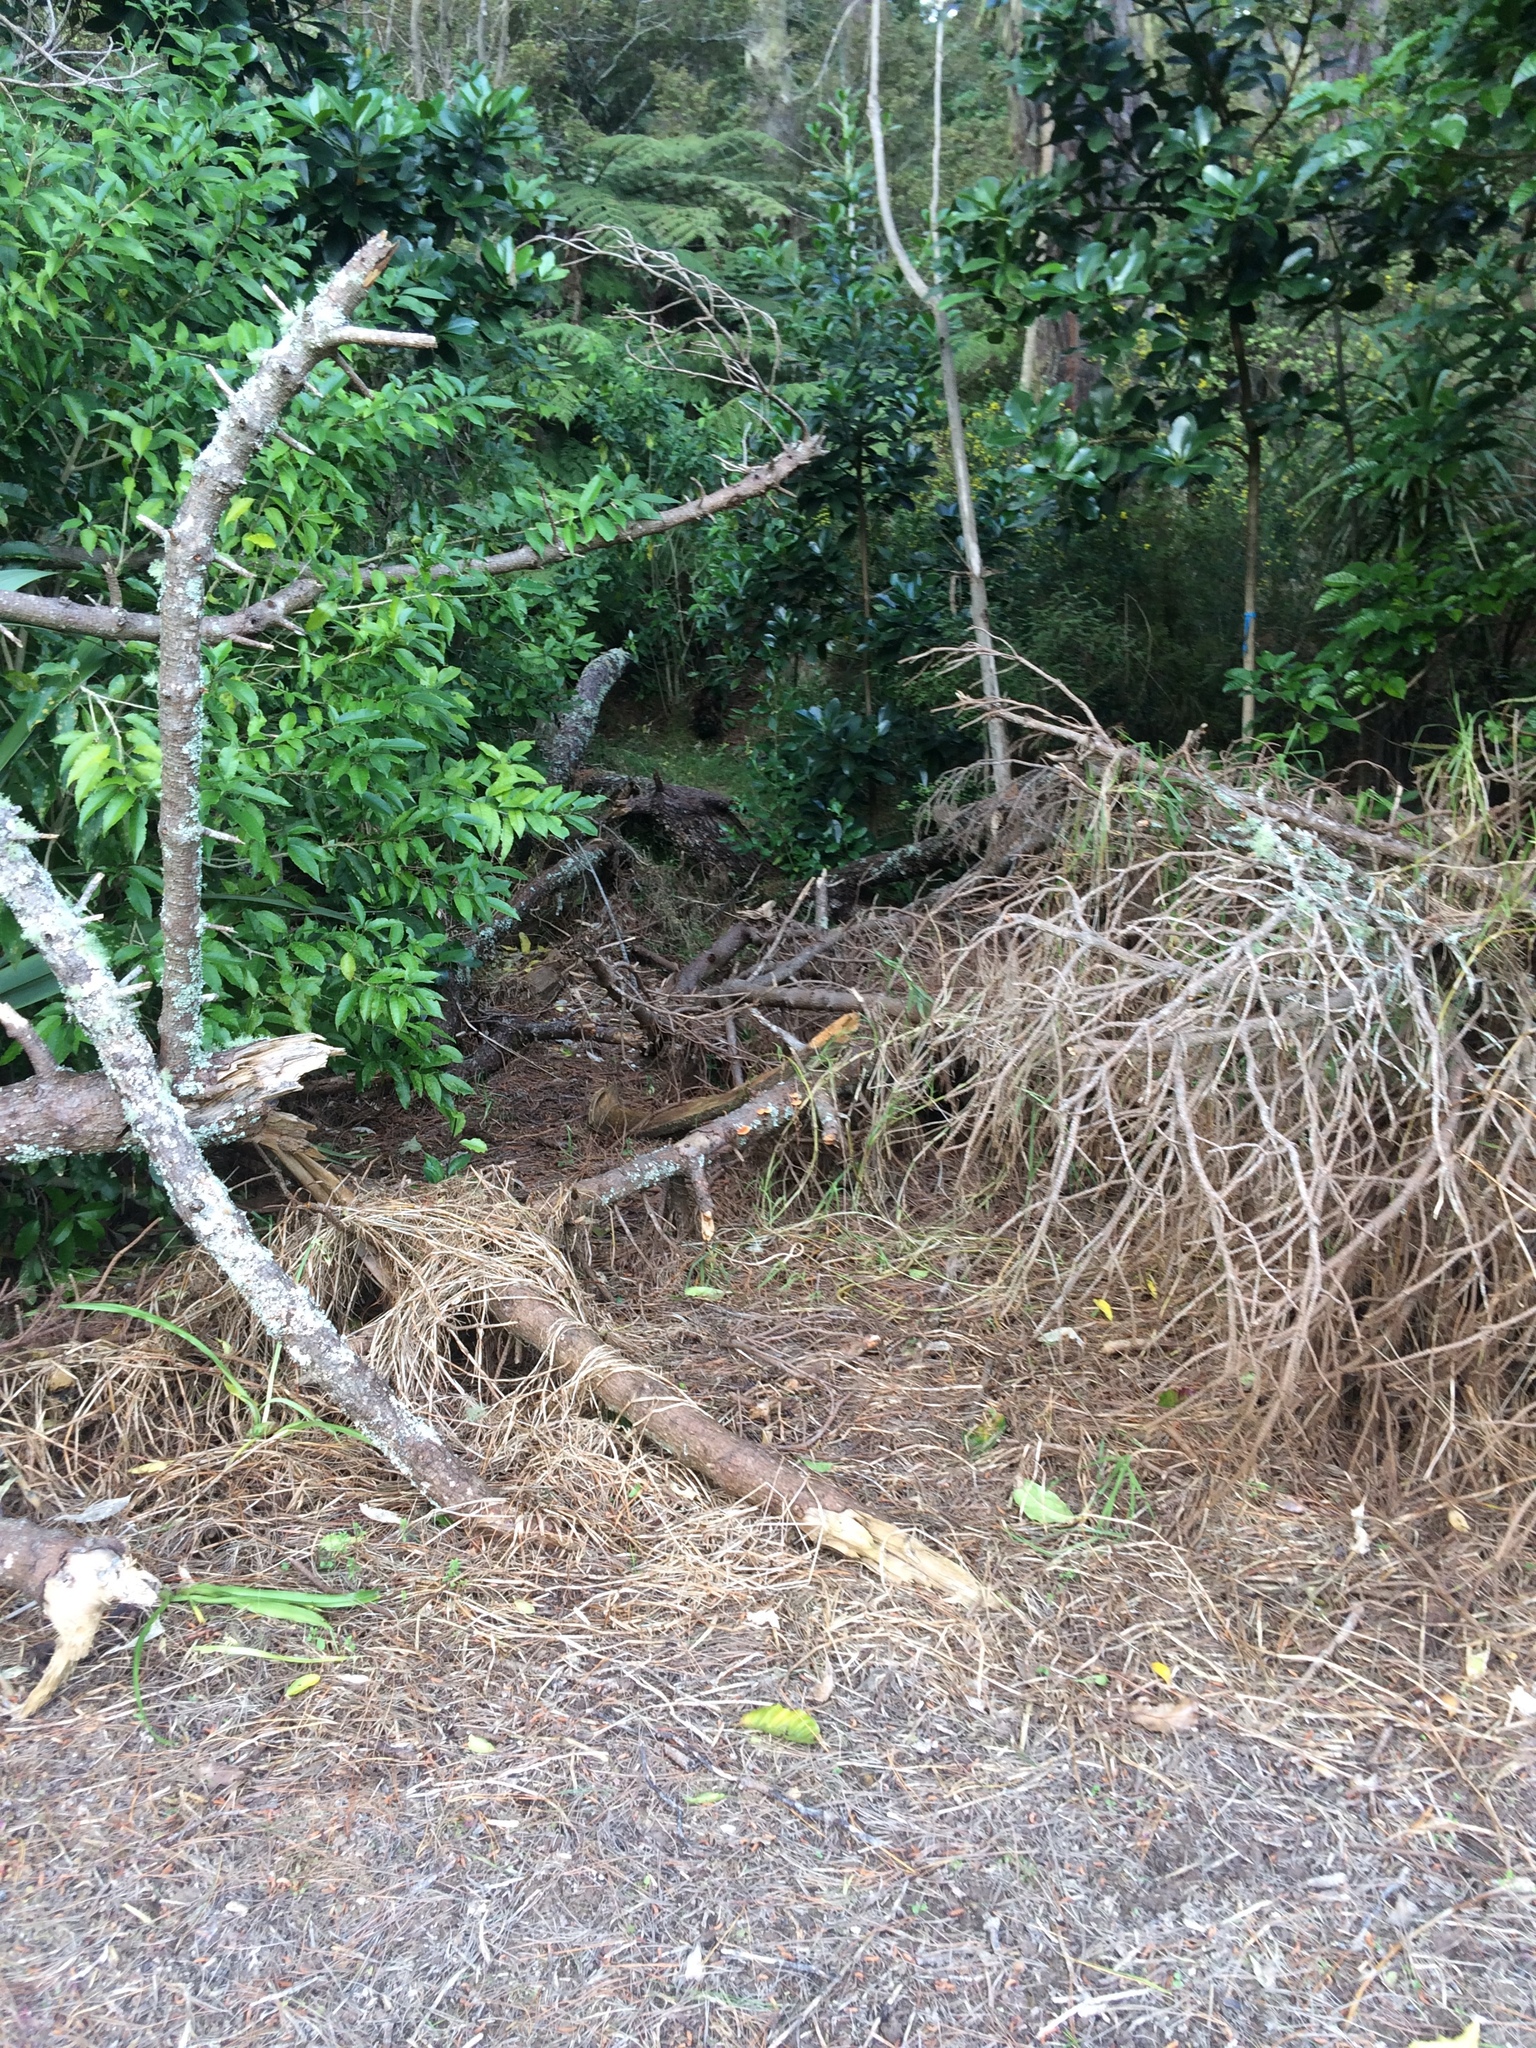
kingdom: Fungi
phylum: Basidiomycota
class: Agaricomycetes
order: Polyporales
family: Polyporaceae
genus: Trametes
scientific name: Trametes coccinea
